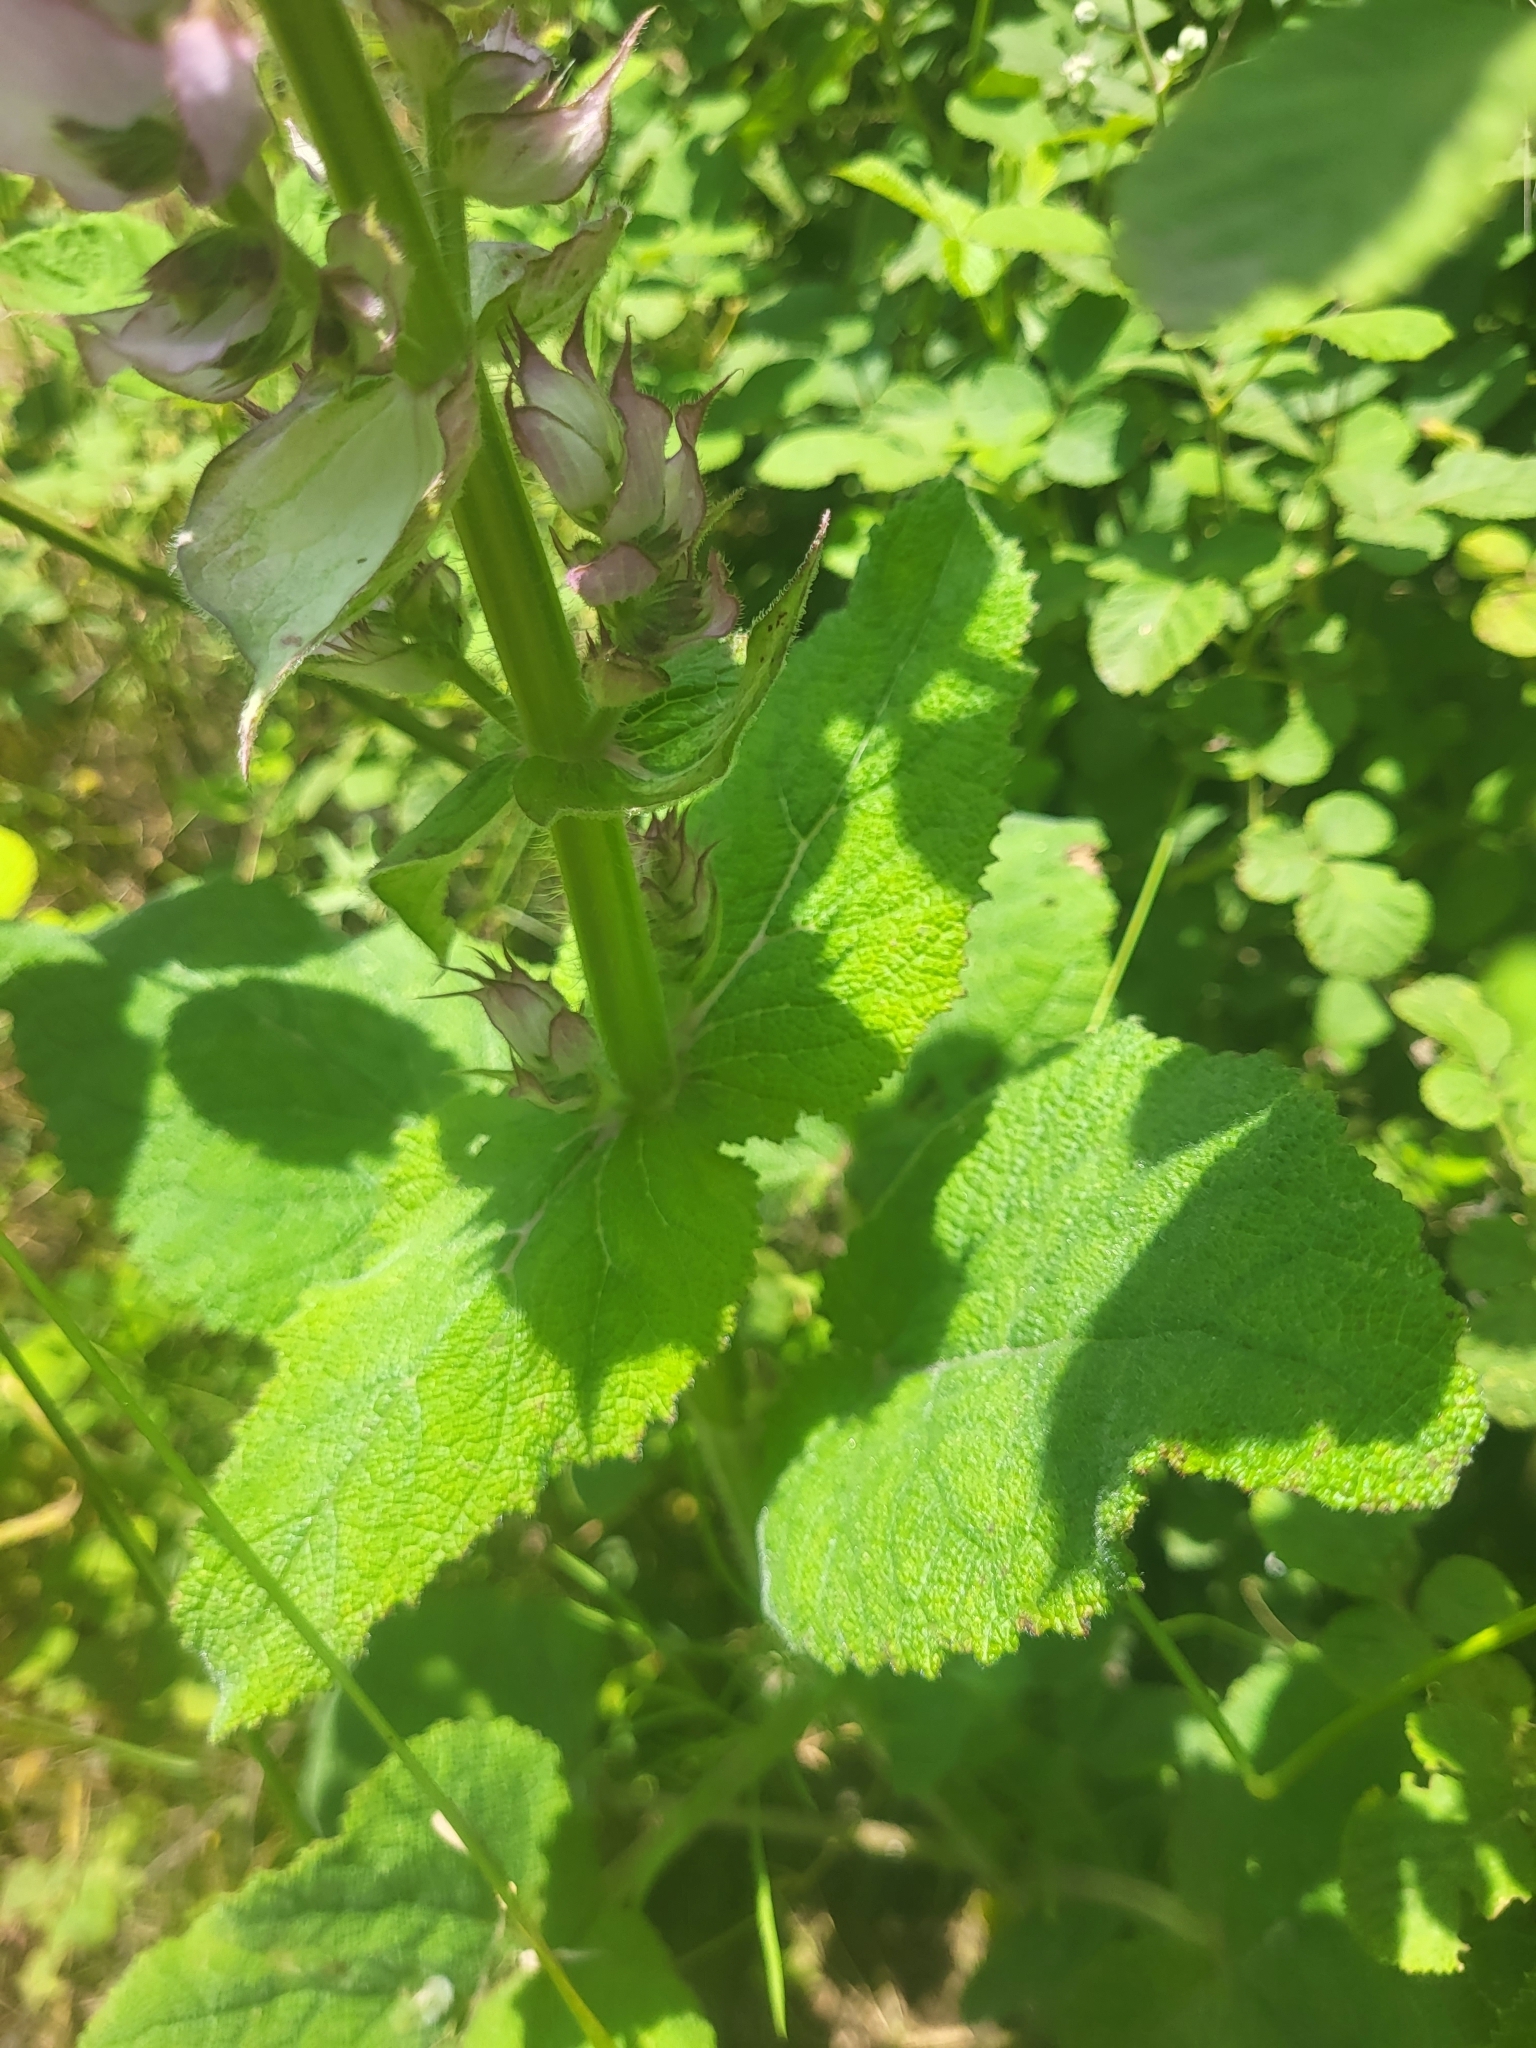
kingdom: Plantae
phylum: Tracheophyta
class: Magnoliopsida
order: Lamiales
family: Lamiaceae
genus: Salvia
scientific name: Salvia sclarea
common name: Clary
